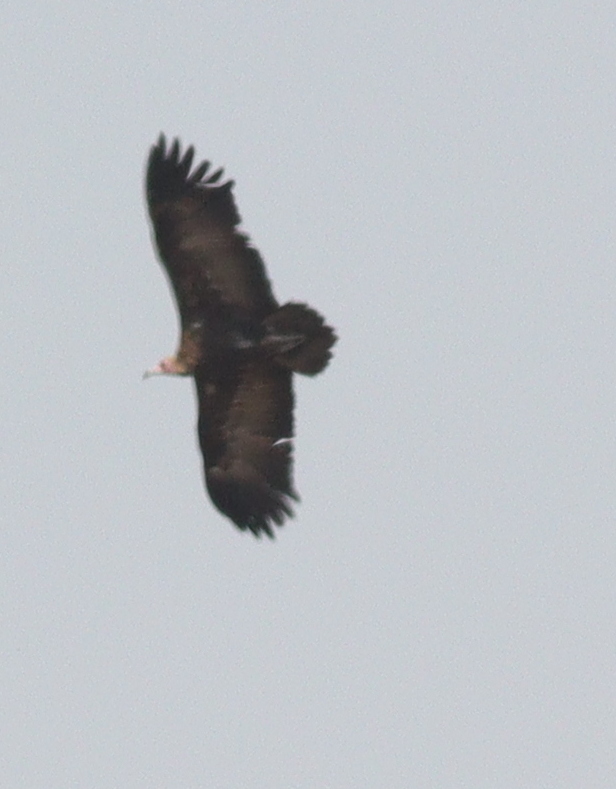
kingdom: Animalia
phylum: Chordata
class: Aves
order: Accipitriformes
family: Accipitridae
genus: Necrosyrtes
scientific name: Necrosyrtes monachus
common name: Hooded vulture
